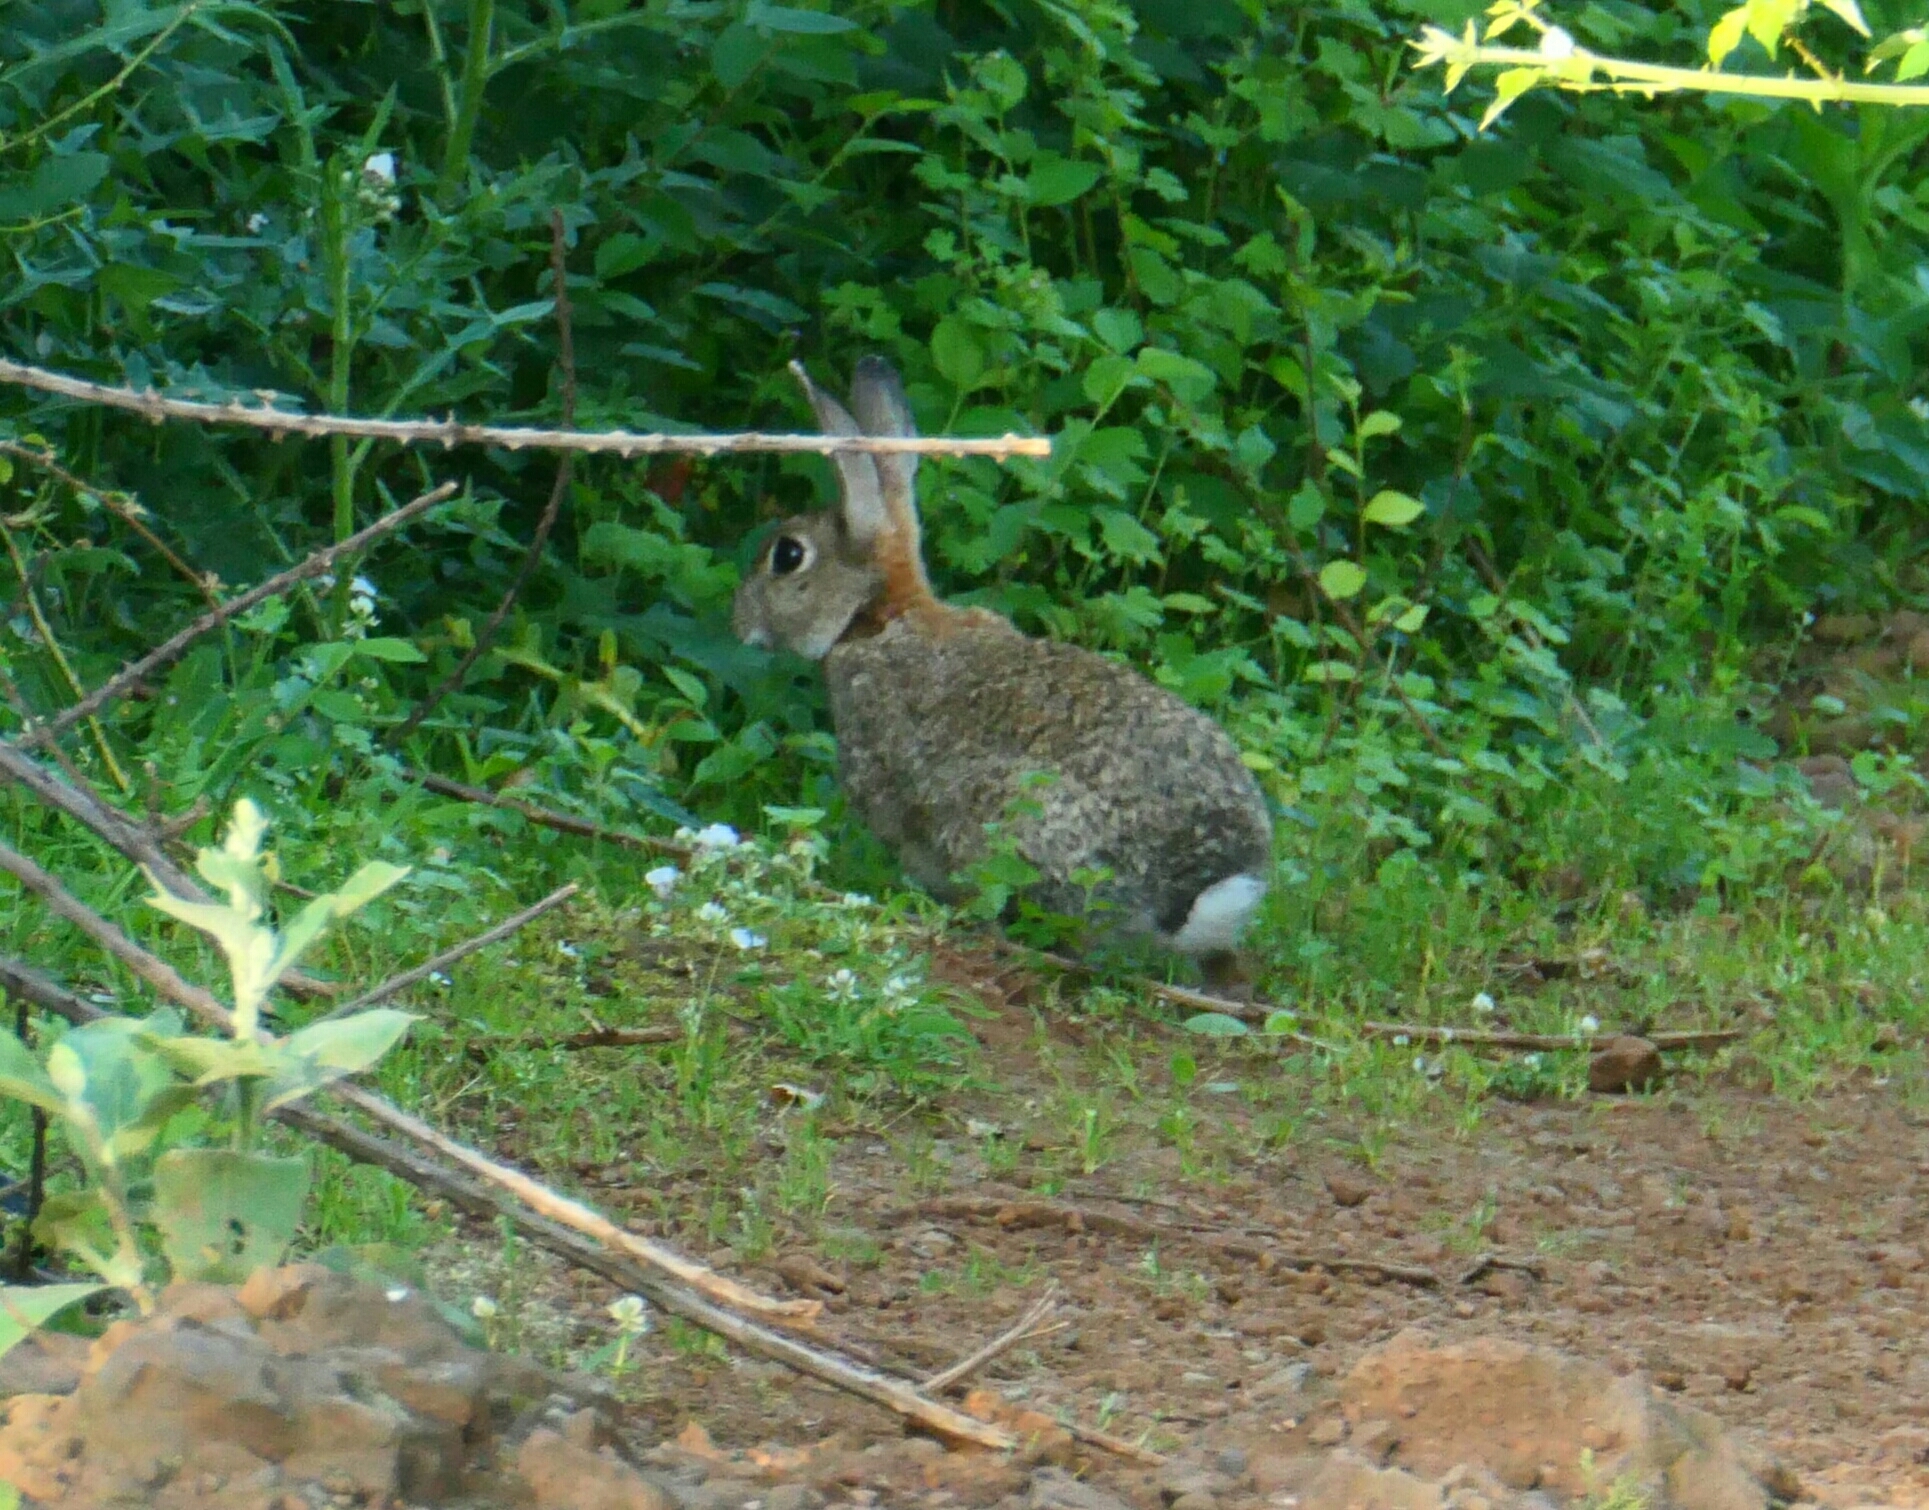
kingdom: Animalia
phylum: Chordata
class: Mammalia
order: Lagomorpha
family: Leporidae
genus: Oryctolagus
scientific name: Oryctolagus cuniculus
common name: European rabbit
